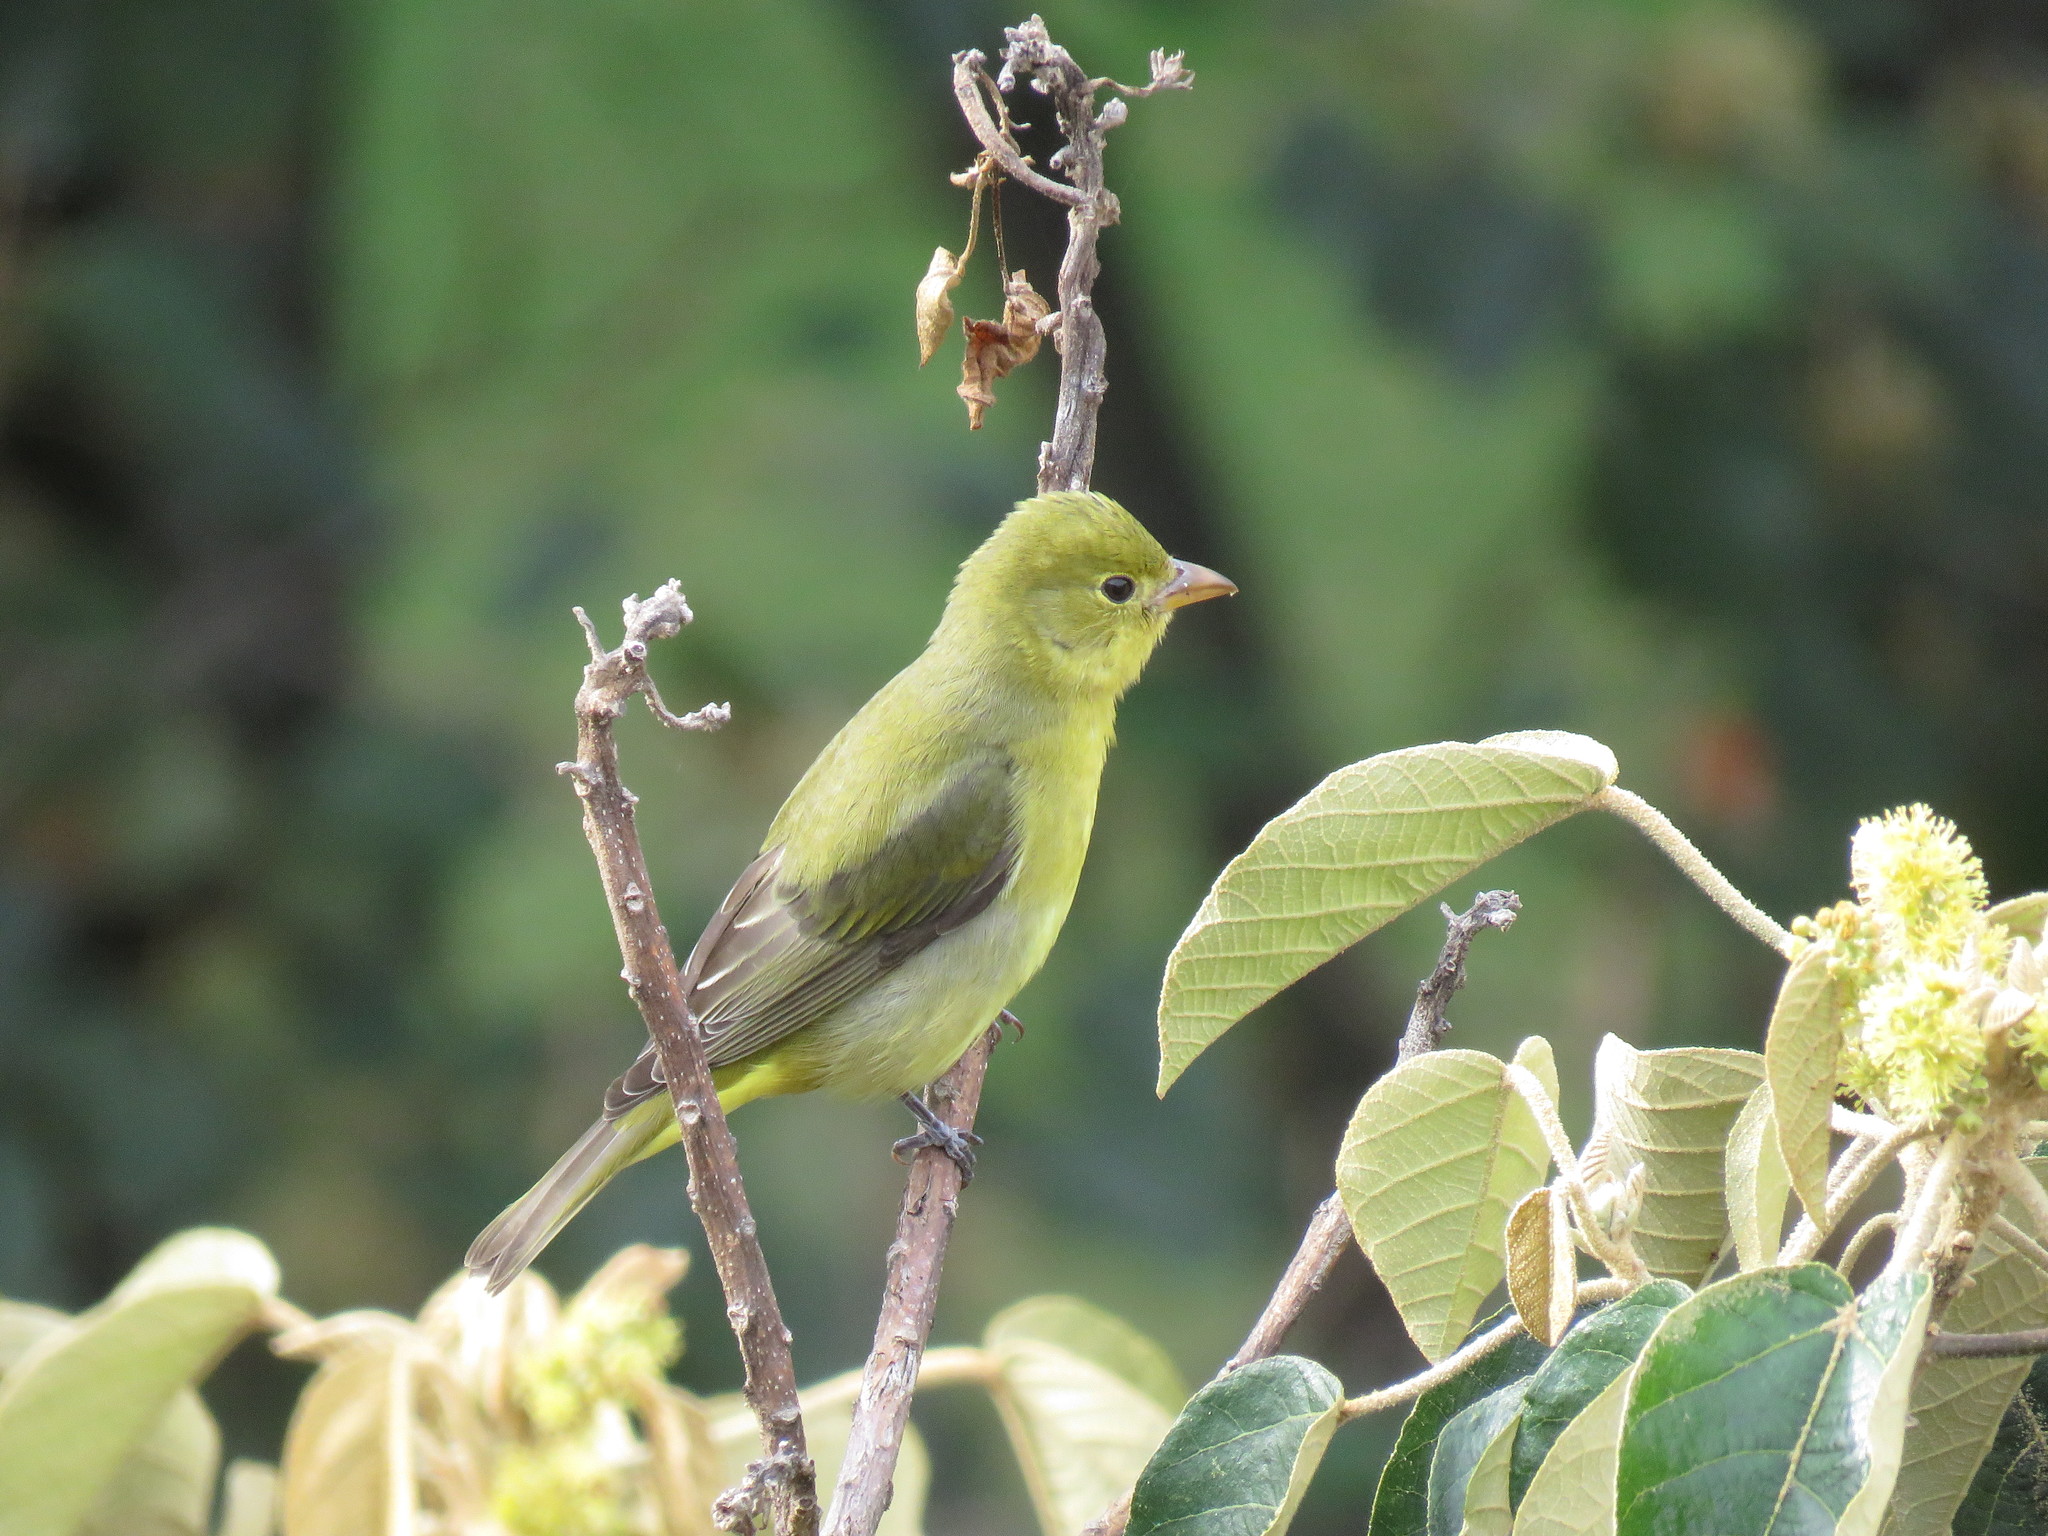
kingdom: Animalia
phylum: Chordata
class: Aves
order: Passeriformes
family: Cardinalidae
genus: Piranga
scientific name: Piranga olivacea
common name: Scarlet tanager
